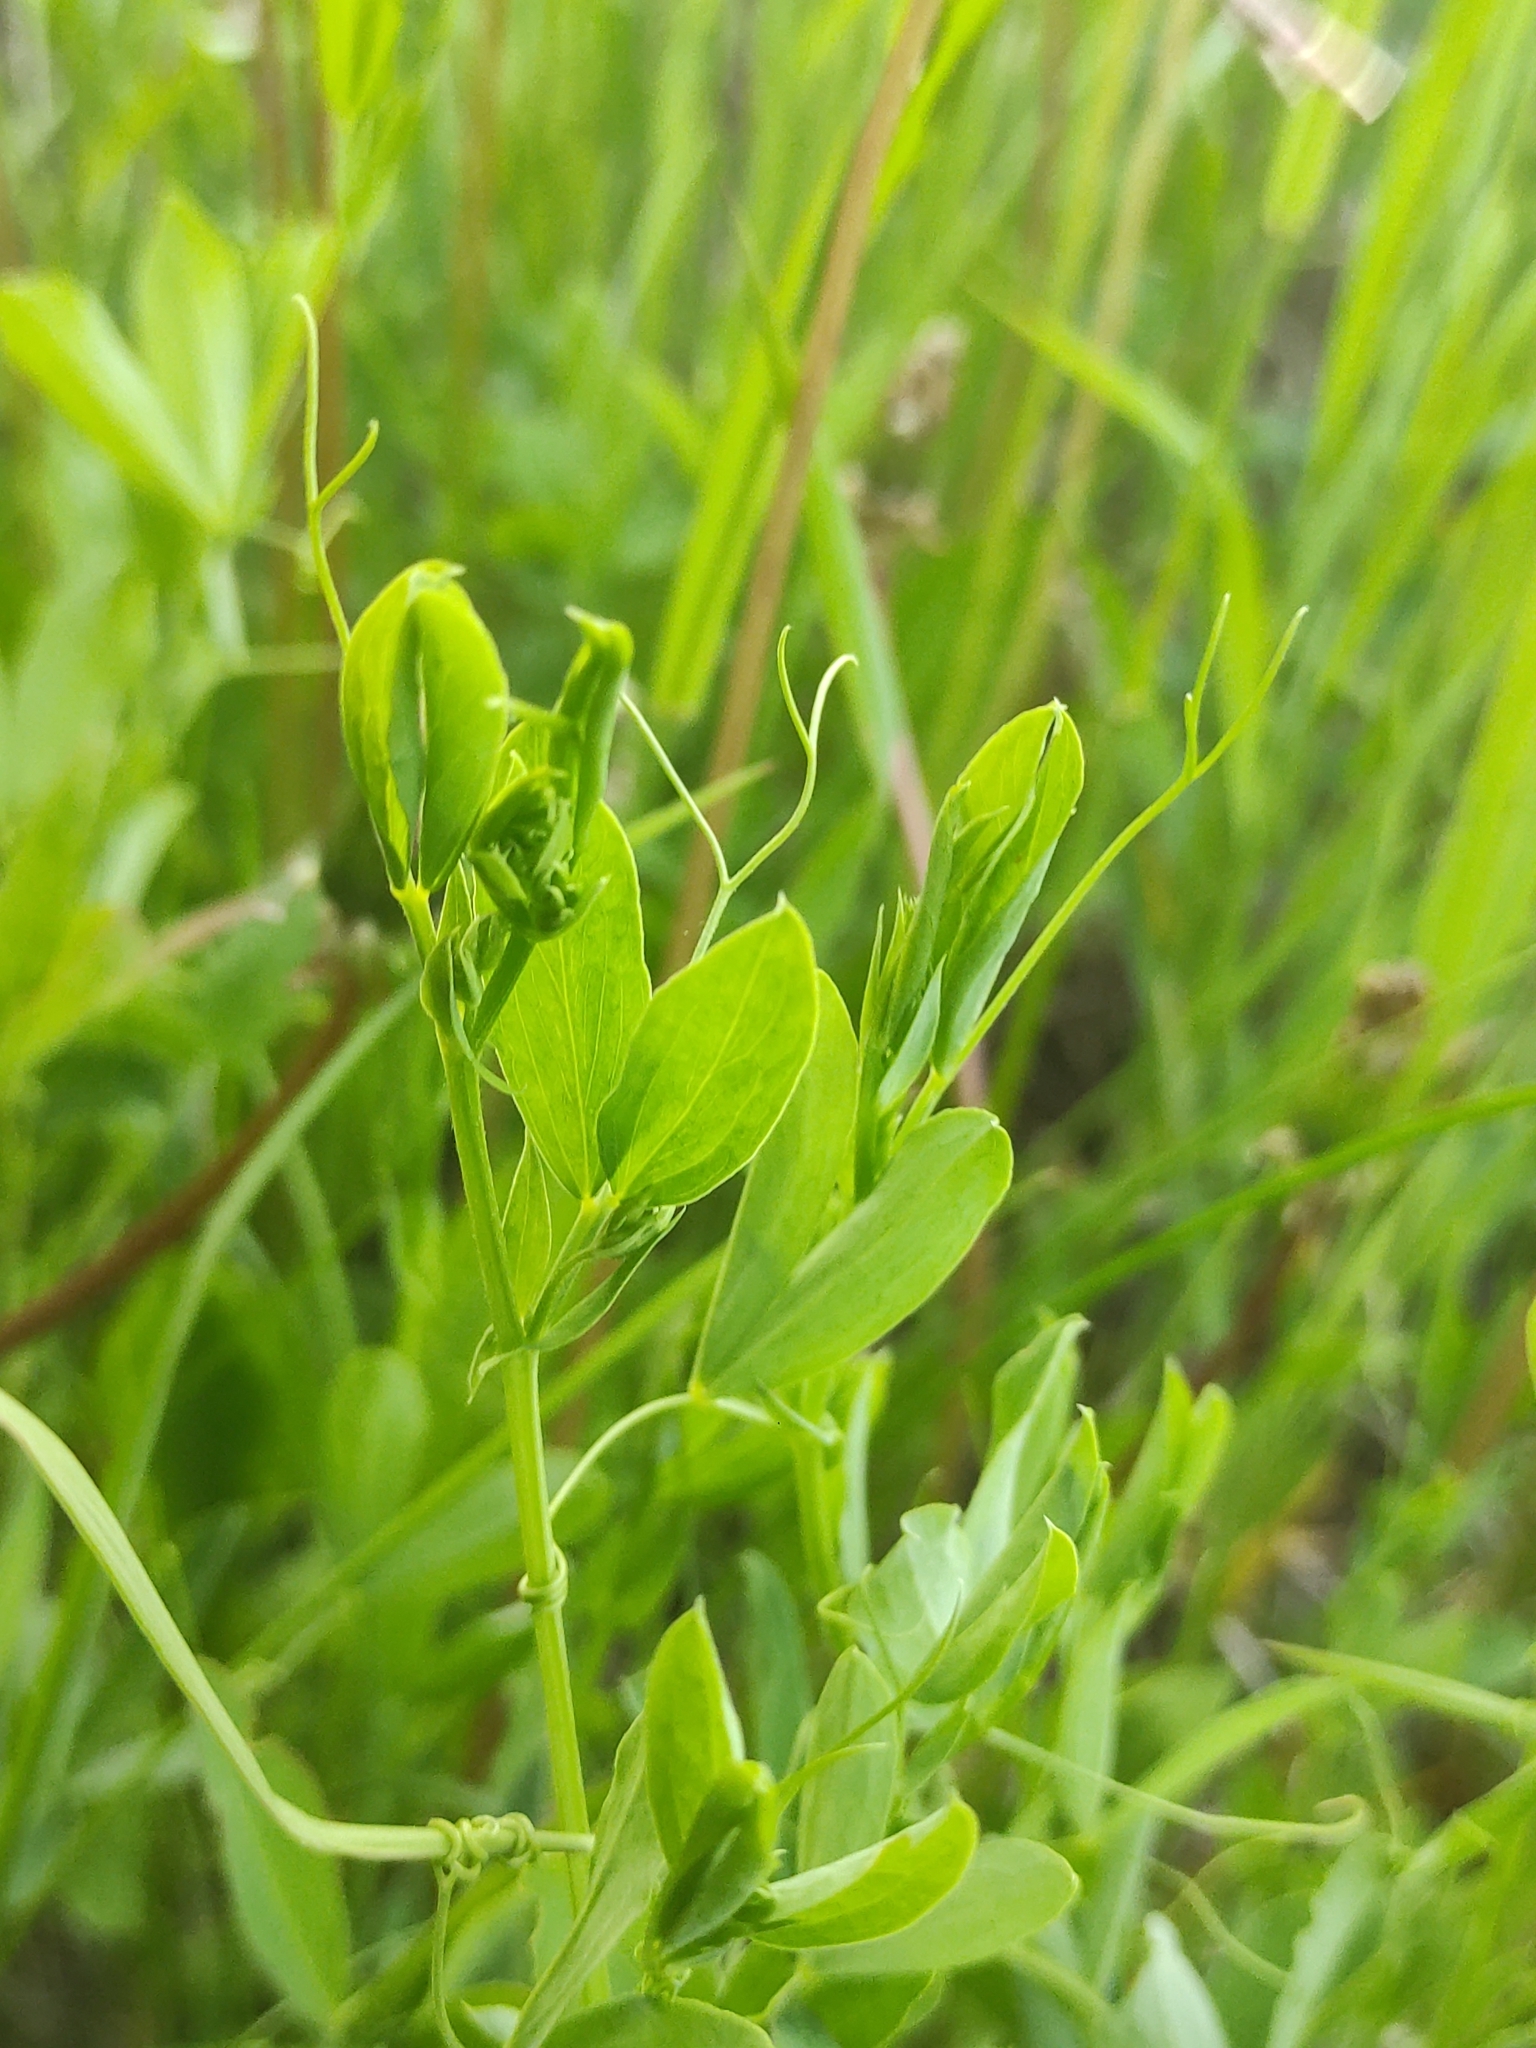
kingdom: Plantae
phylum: Tracheophyta
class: Magnoliopsida
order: Fabales
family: Fabaceae
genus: Lathyrus
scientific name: Lathyrus tuberosus
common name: Tuberous pea
